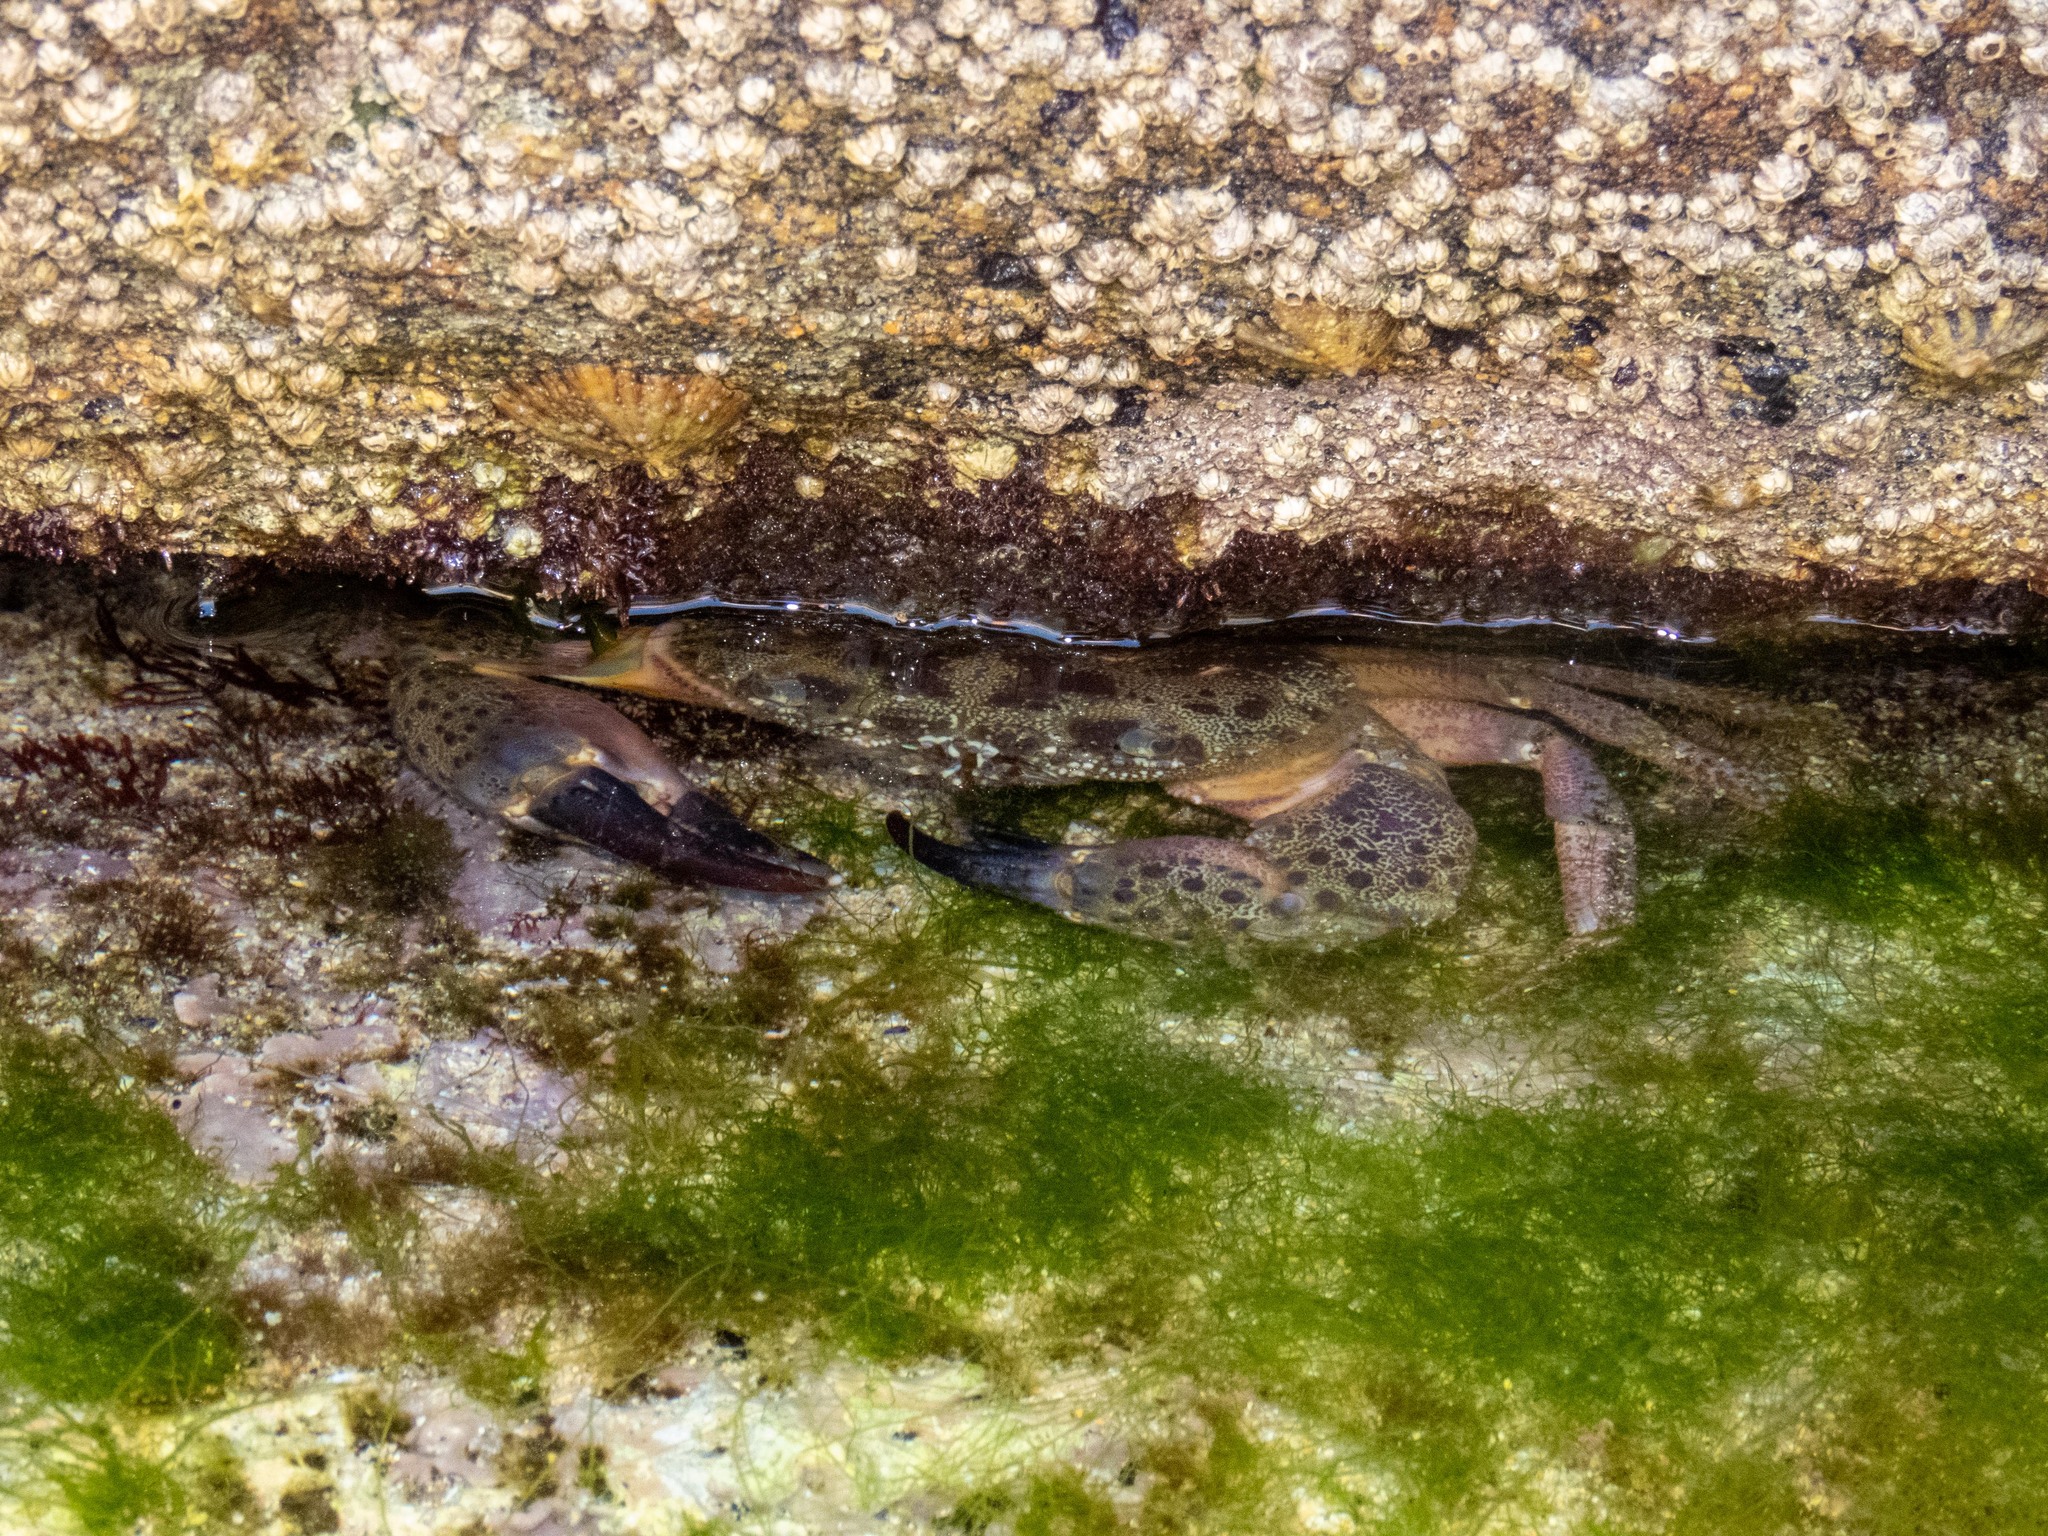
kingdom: Animalia
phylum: Arthropoda
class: Malacostraca
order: Decapoda
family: Eriphiidae
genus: Eriphia
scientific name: Eriphia verrucosa
